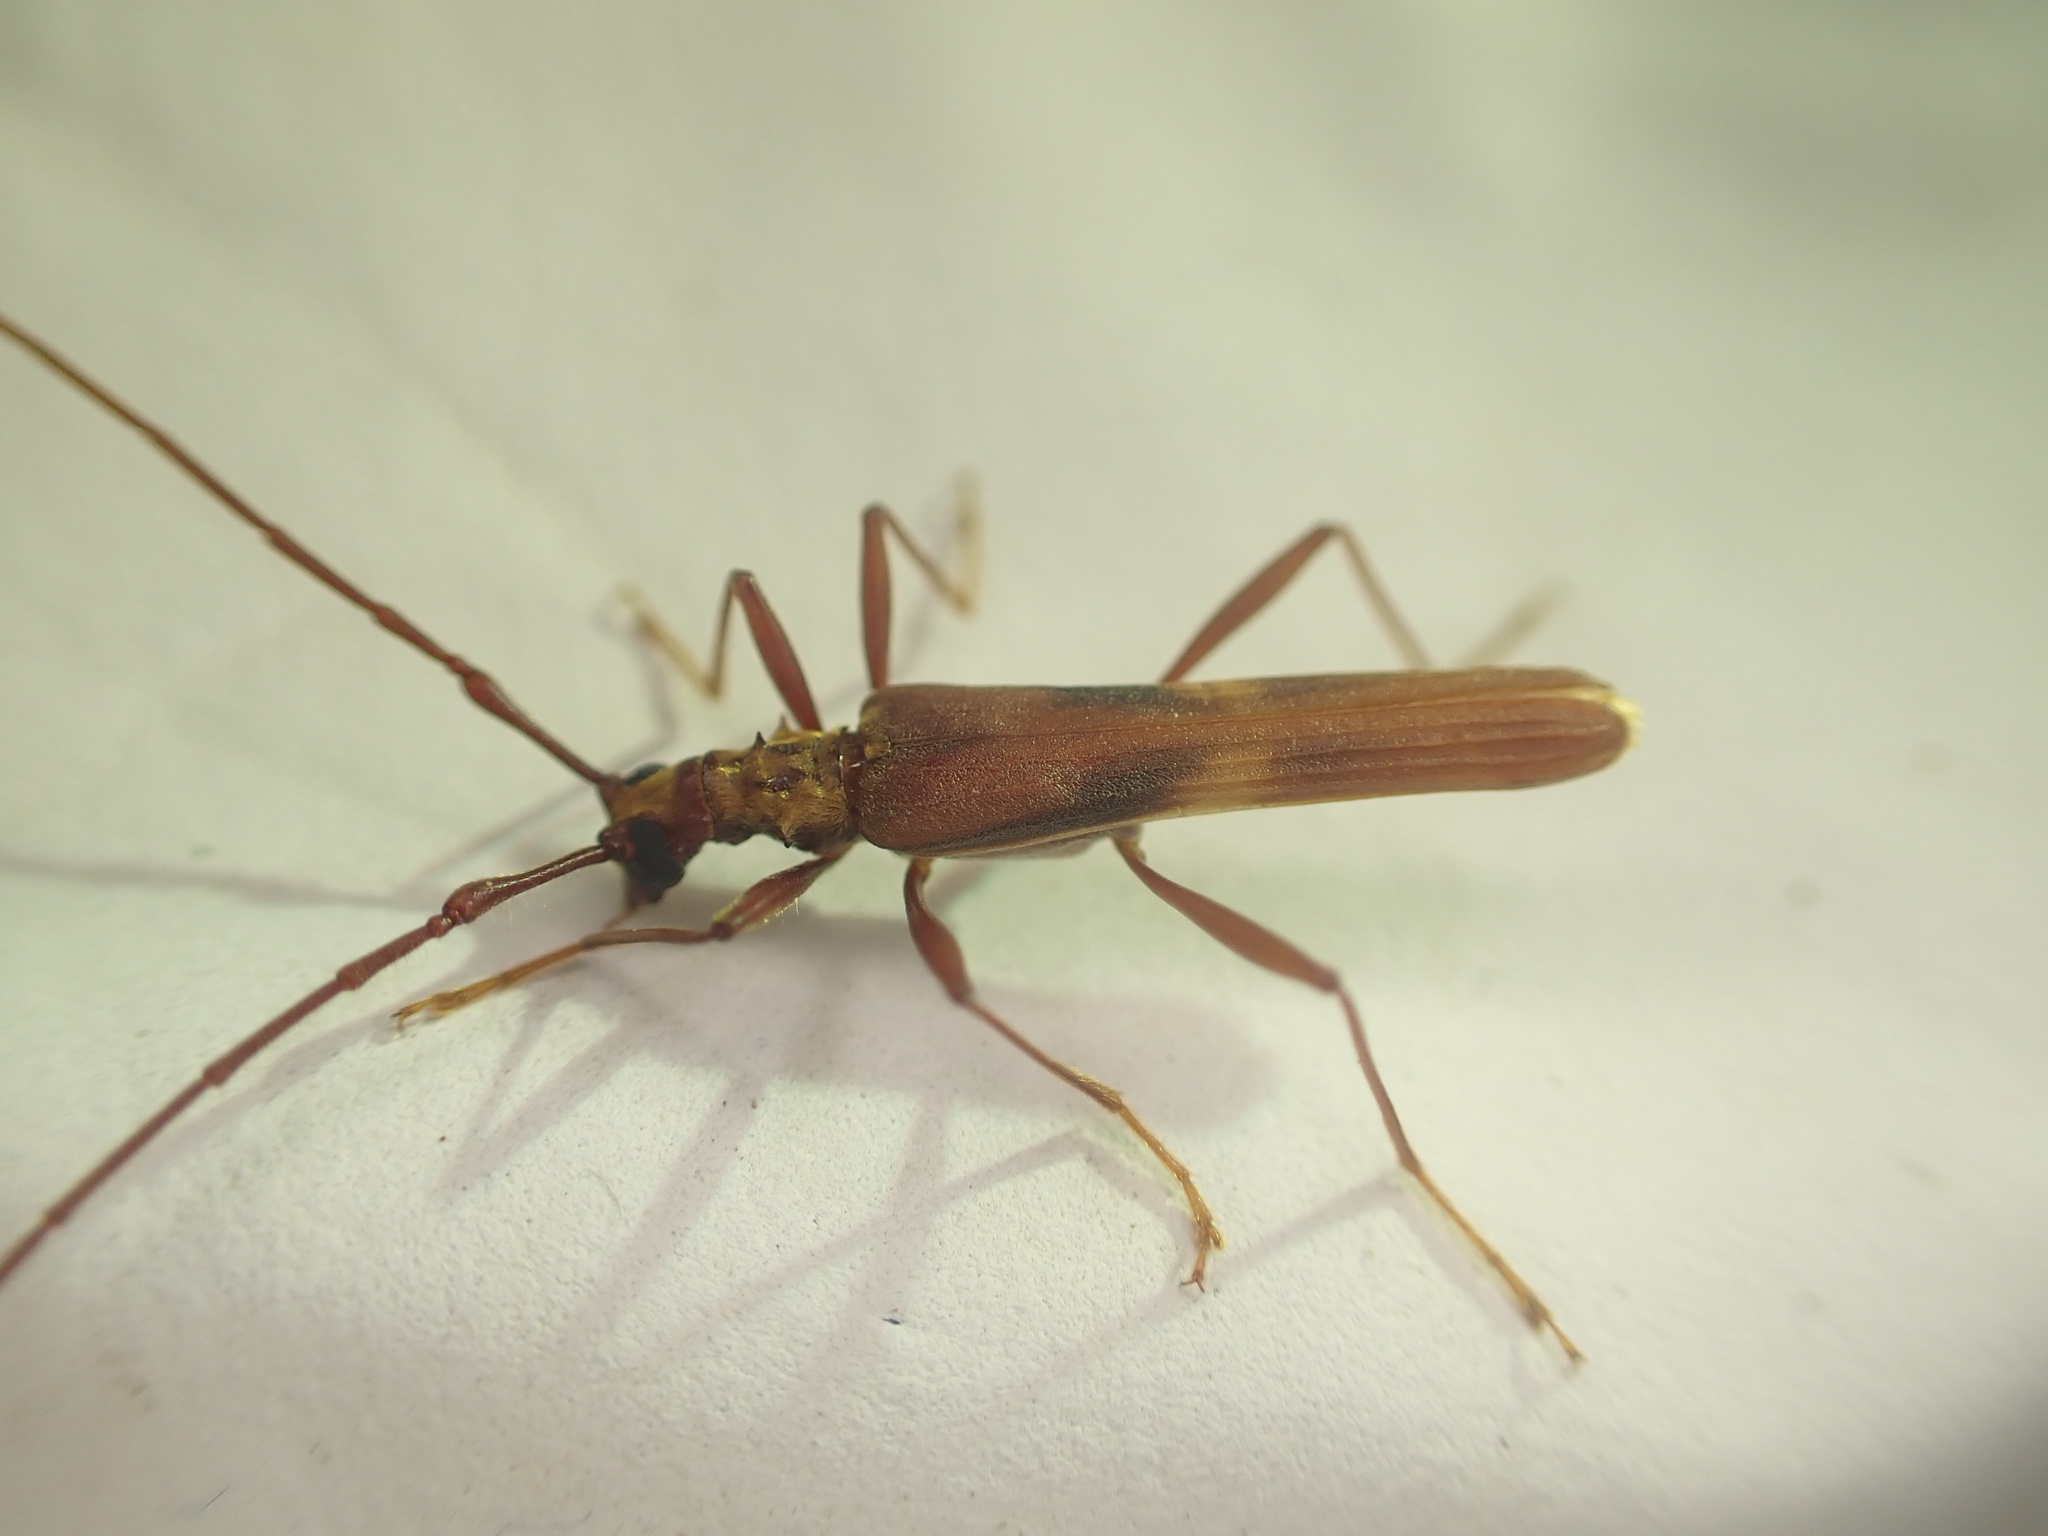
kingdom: Animalia
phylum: Arthropoda
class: Insecta
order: Coleoptera
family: Cerambycidae
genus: Calliprason
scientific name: Calliprason costifer
